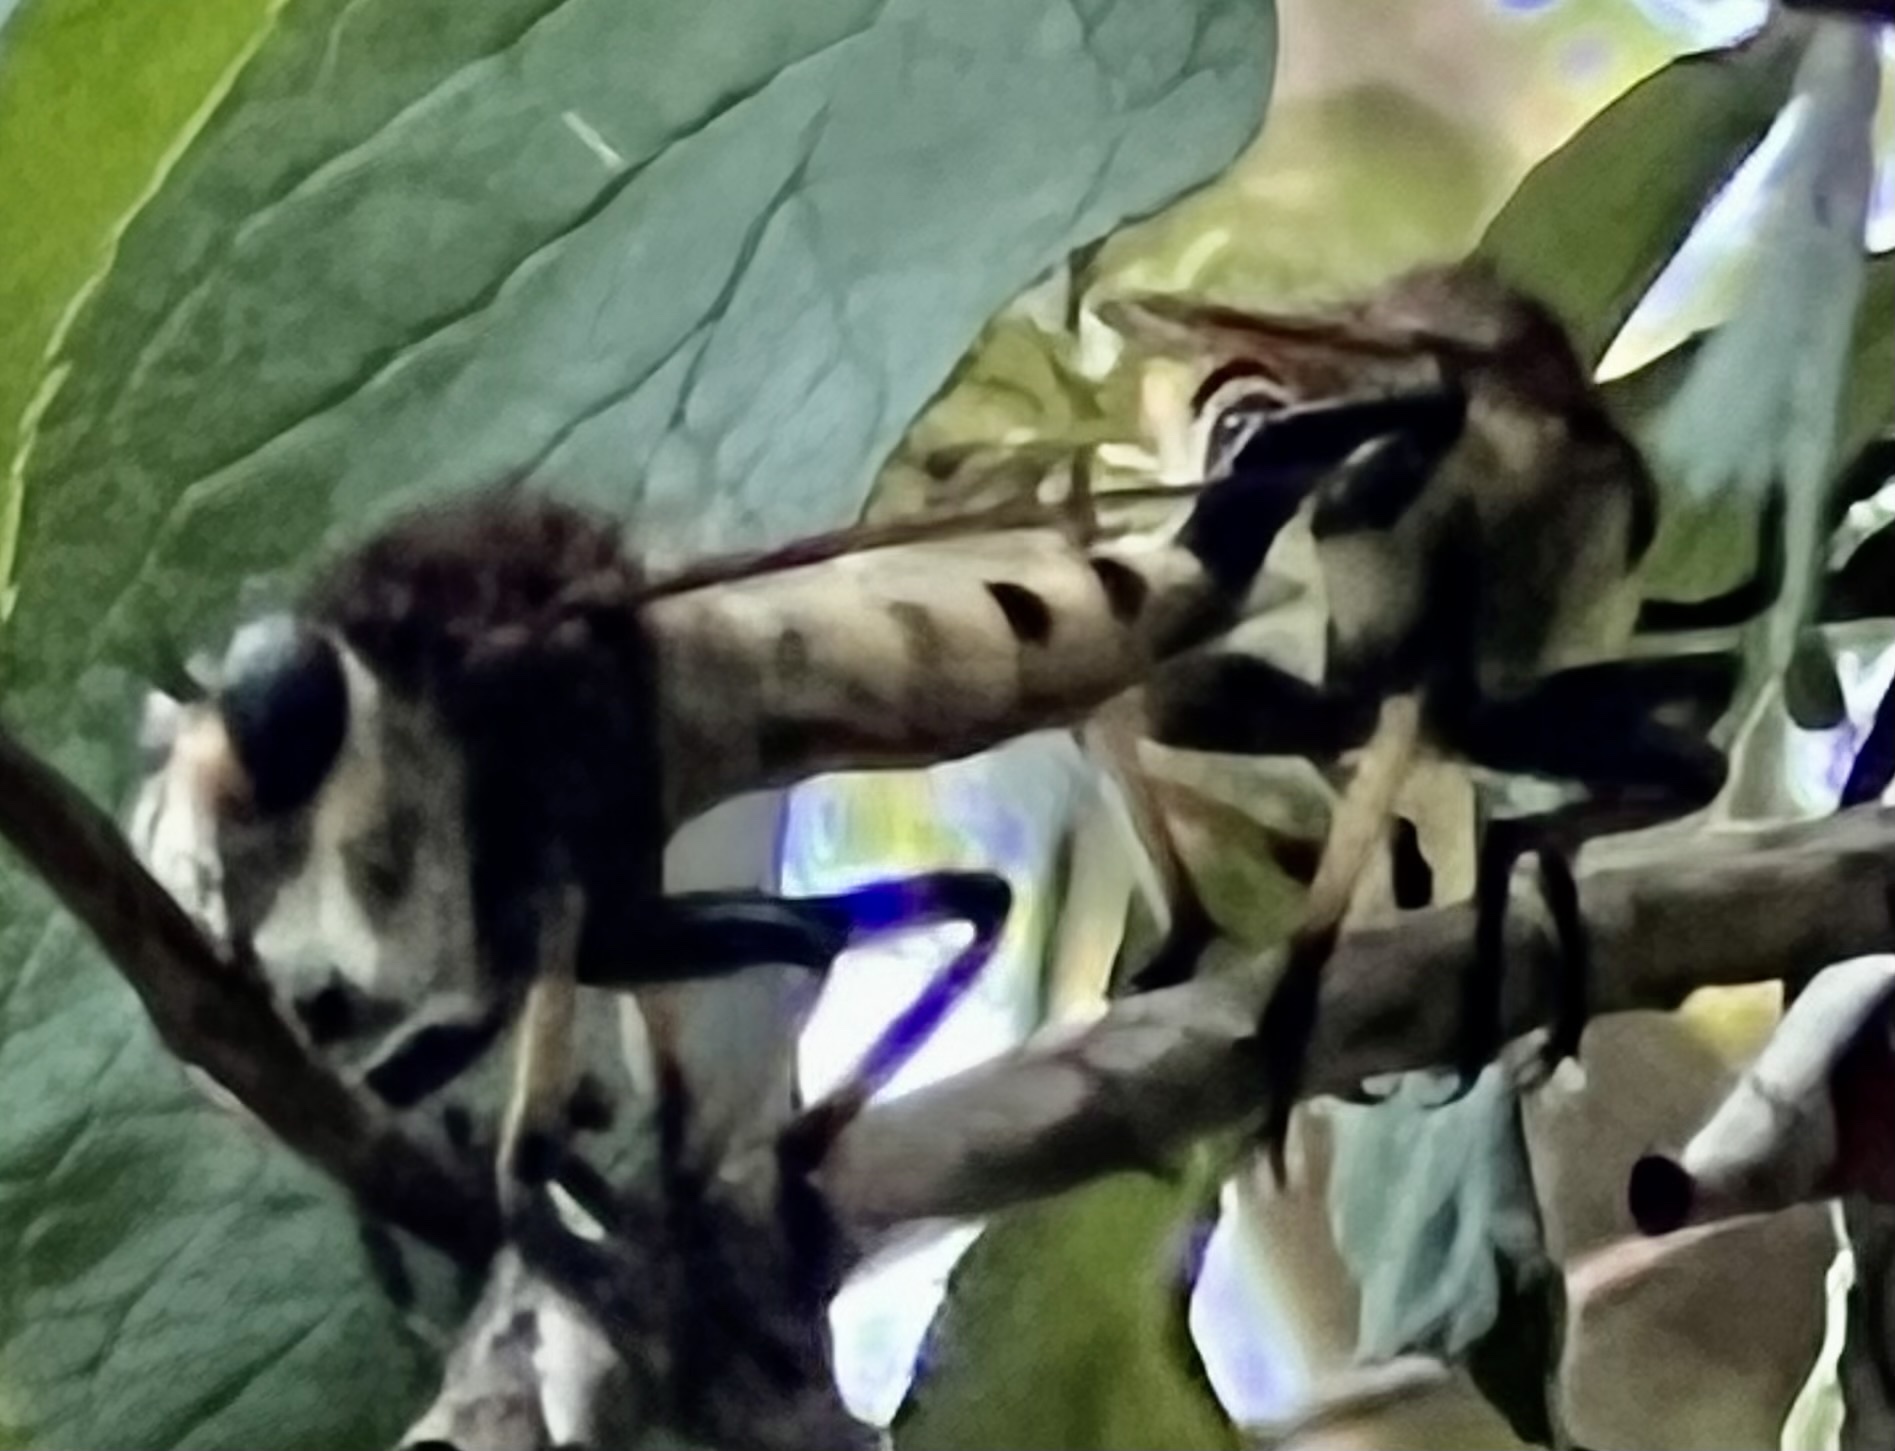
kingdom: Animalia
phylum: Arthropoda
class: Insecta
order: Diptera
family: Asilidae
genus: Promachus
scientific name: Promachus rufipes
